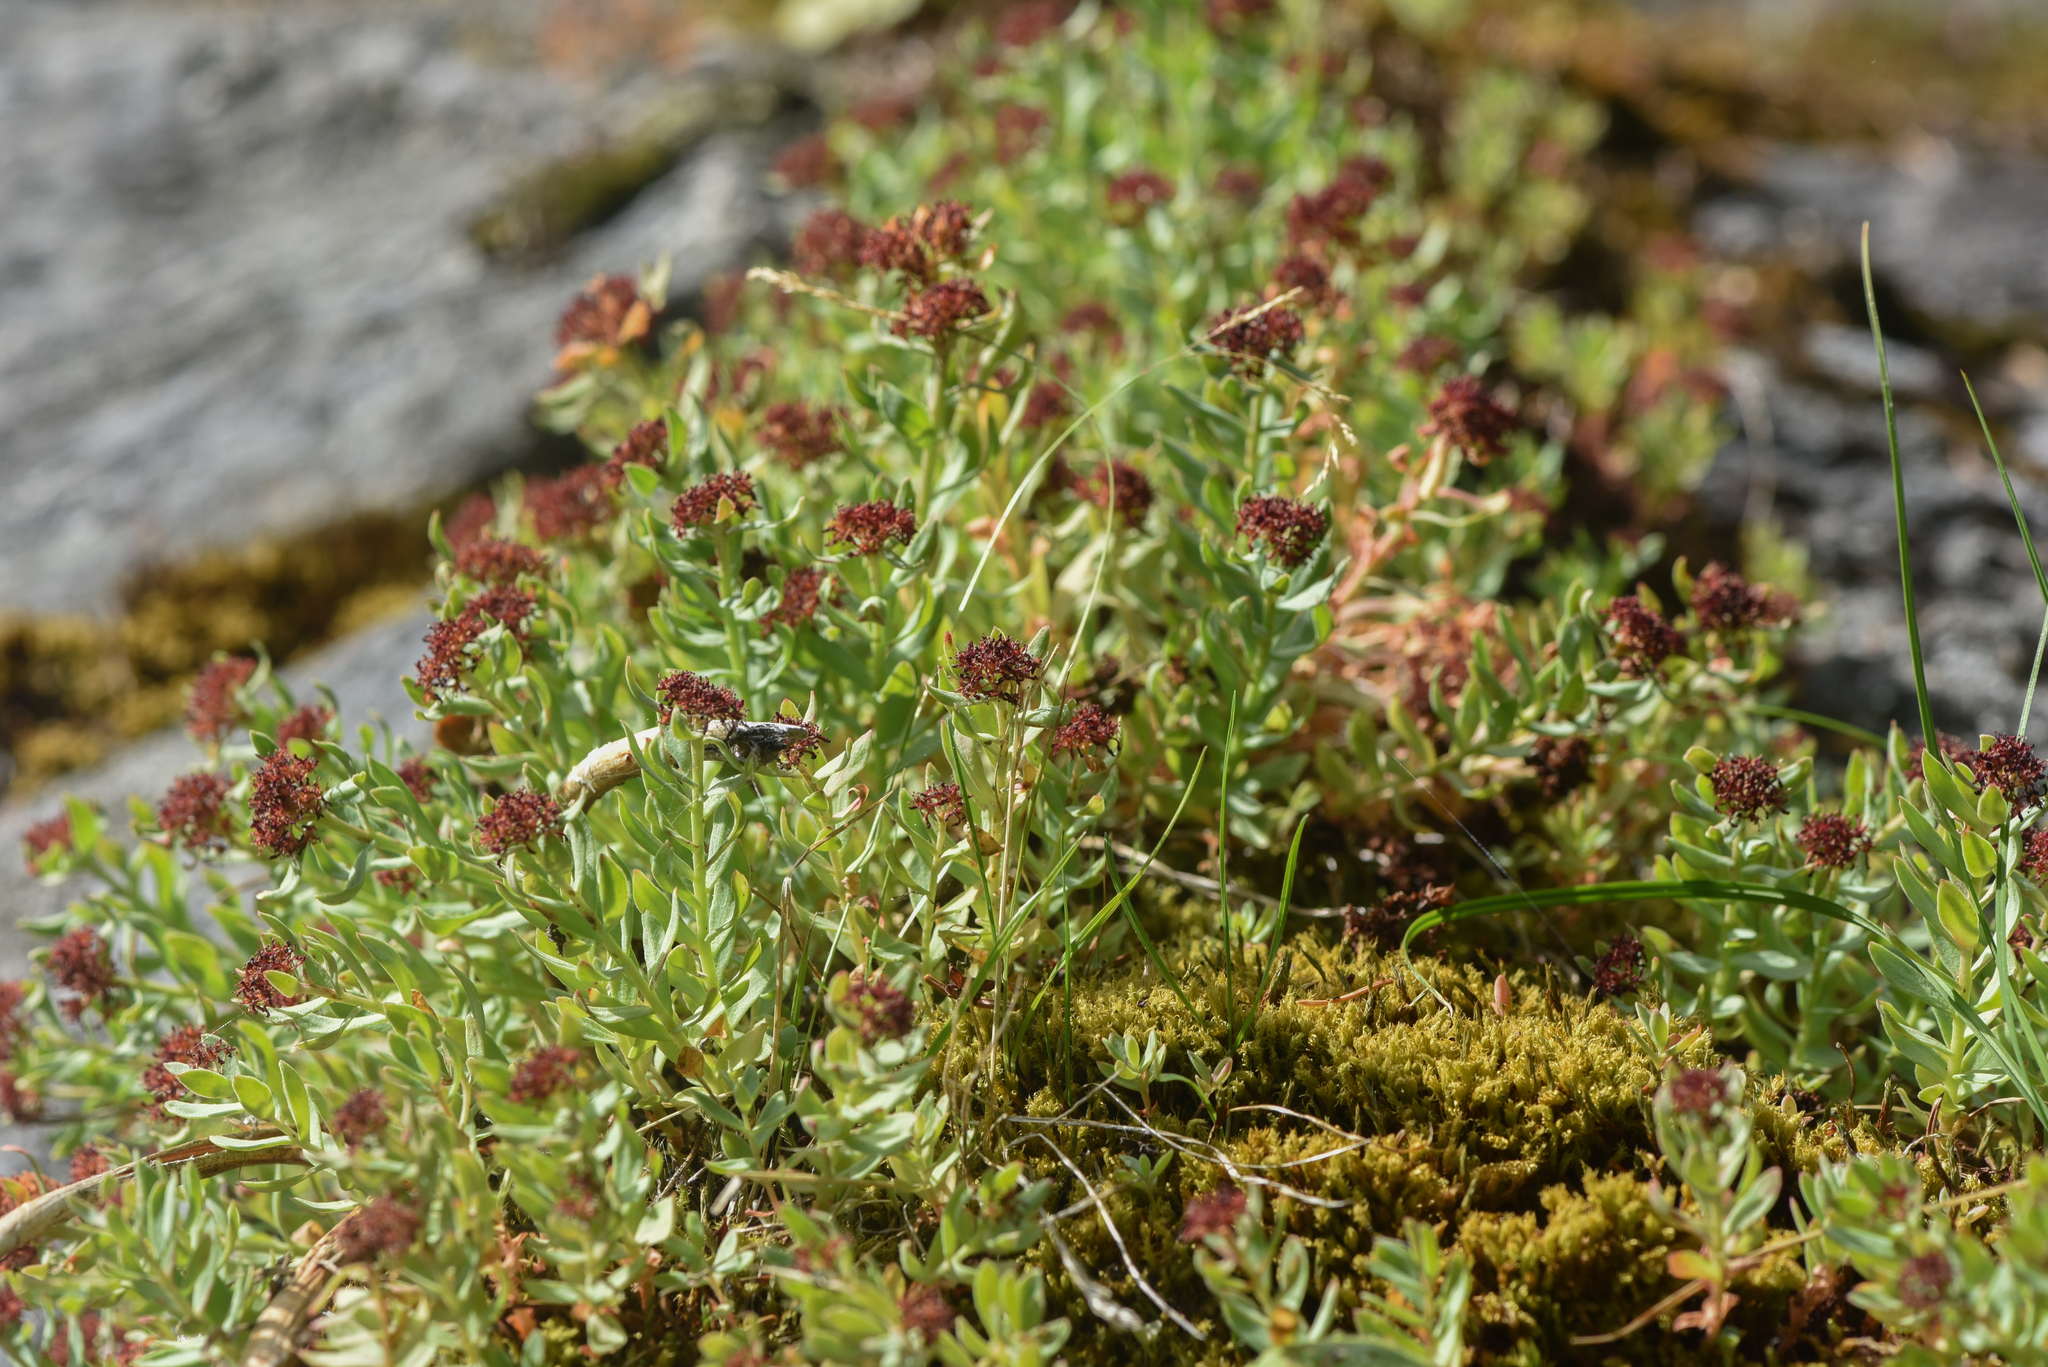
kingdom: Plantae
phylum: Tracheophyta
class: Magnoliopsida
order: Saxifragales
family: Crassulaceae
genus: Rhodiola
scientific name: Rhodiola integrifolia
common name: Western roseroot
